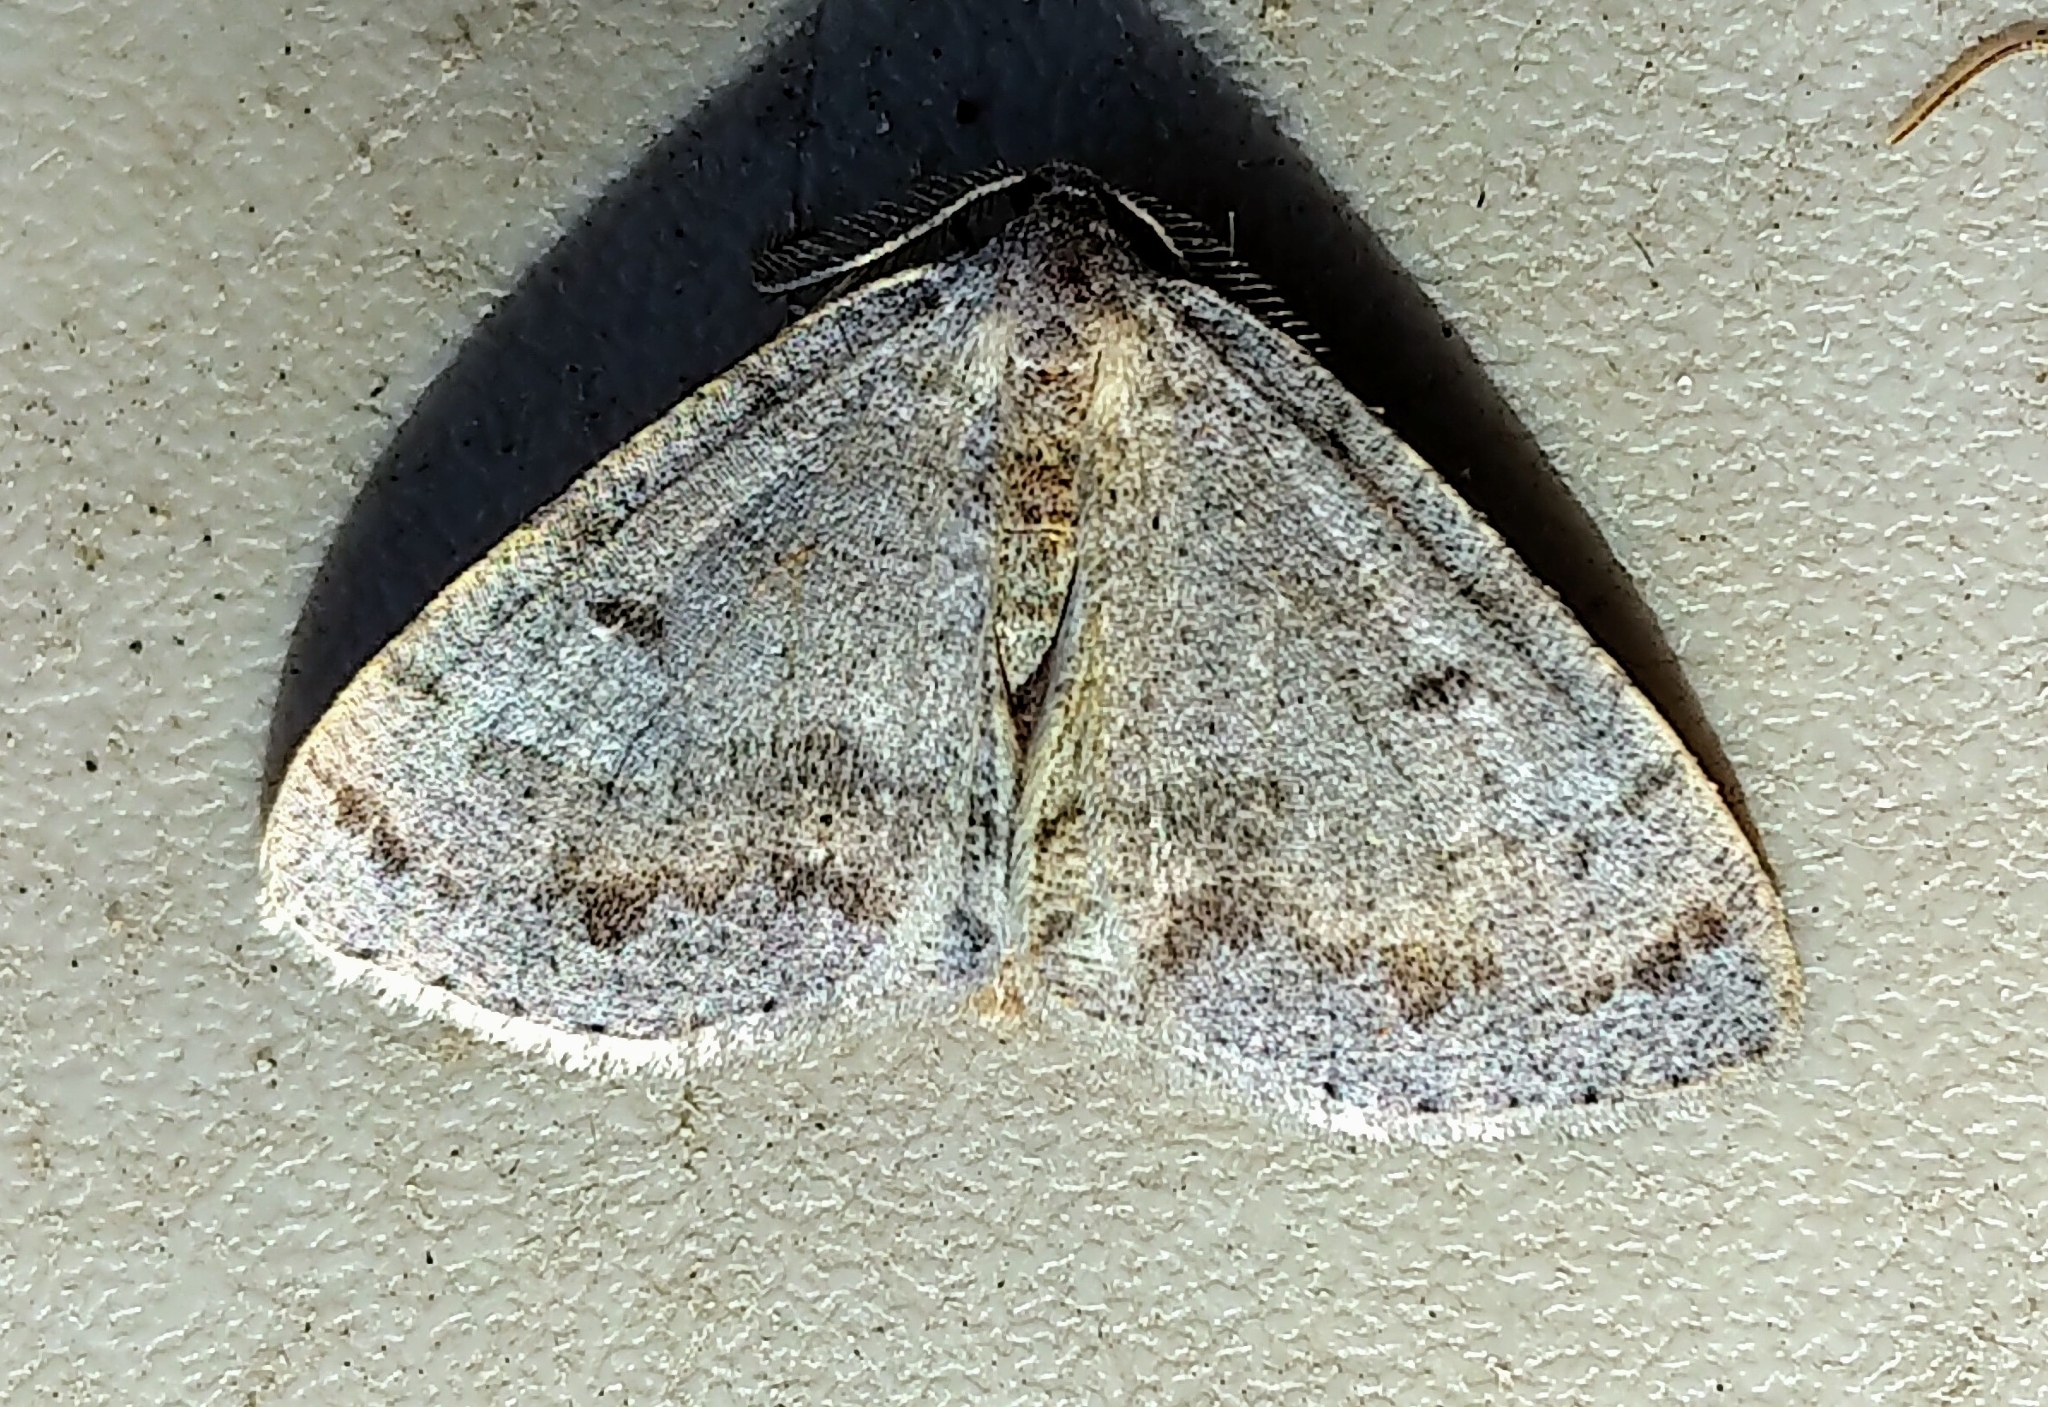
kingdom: Animalia
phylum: Arthropoda
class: Insecta
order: Lepidoptera
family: Geometridae
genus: Macaria
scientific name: Macaria loricaria
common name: False bruce spanworm
